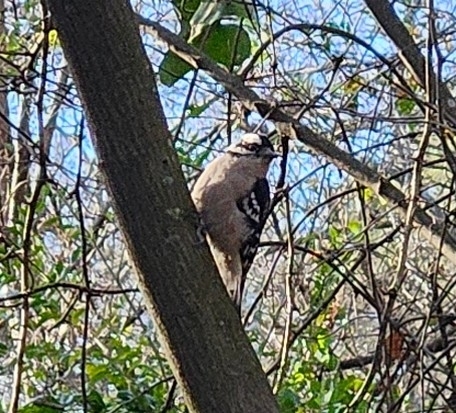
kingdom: Animalia
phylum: Chordata
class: Aves
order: Piciformes
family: Picidae
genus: Dryobates
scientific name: Dryobates pubescens
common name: Downy woodpecker
